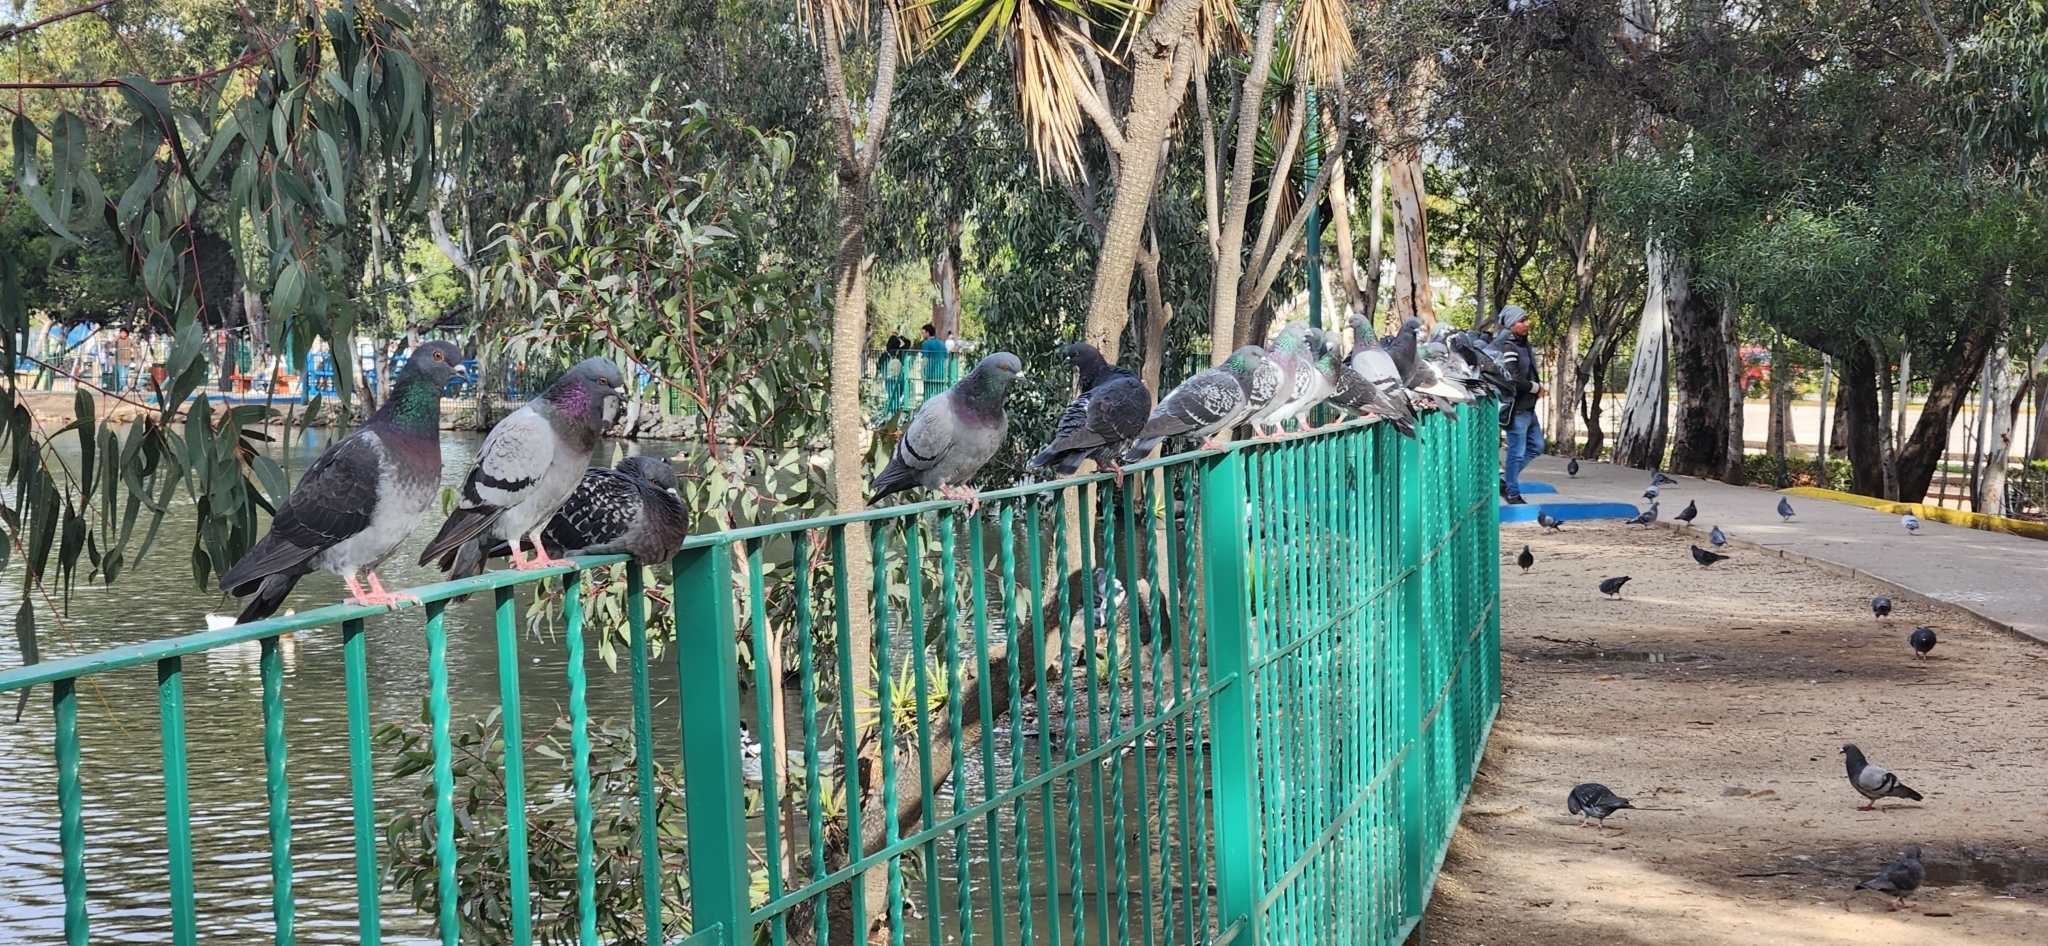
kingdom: Animalia
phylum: Chordata
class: Aves
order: Columbiformes
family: Columbidae
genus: Columba
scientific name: Columba livia
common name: Rock pigeon
